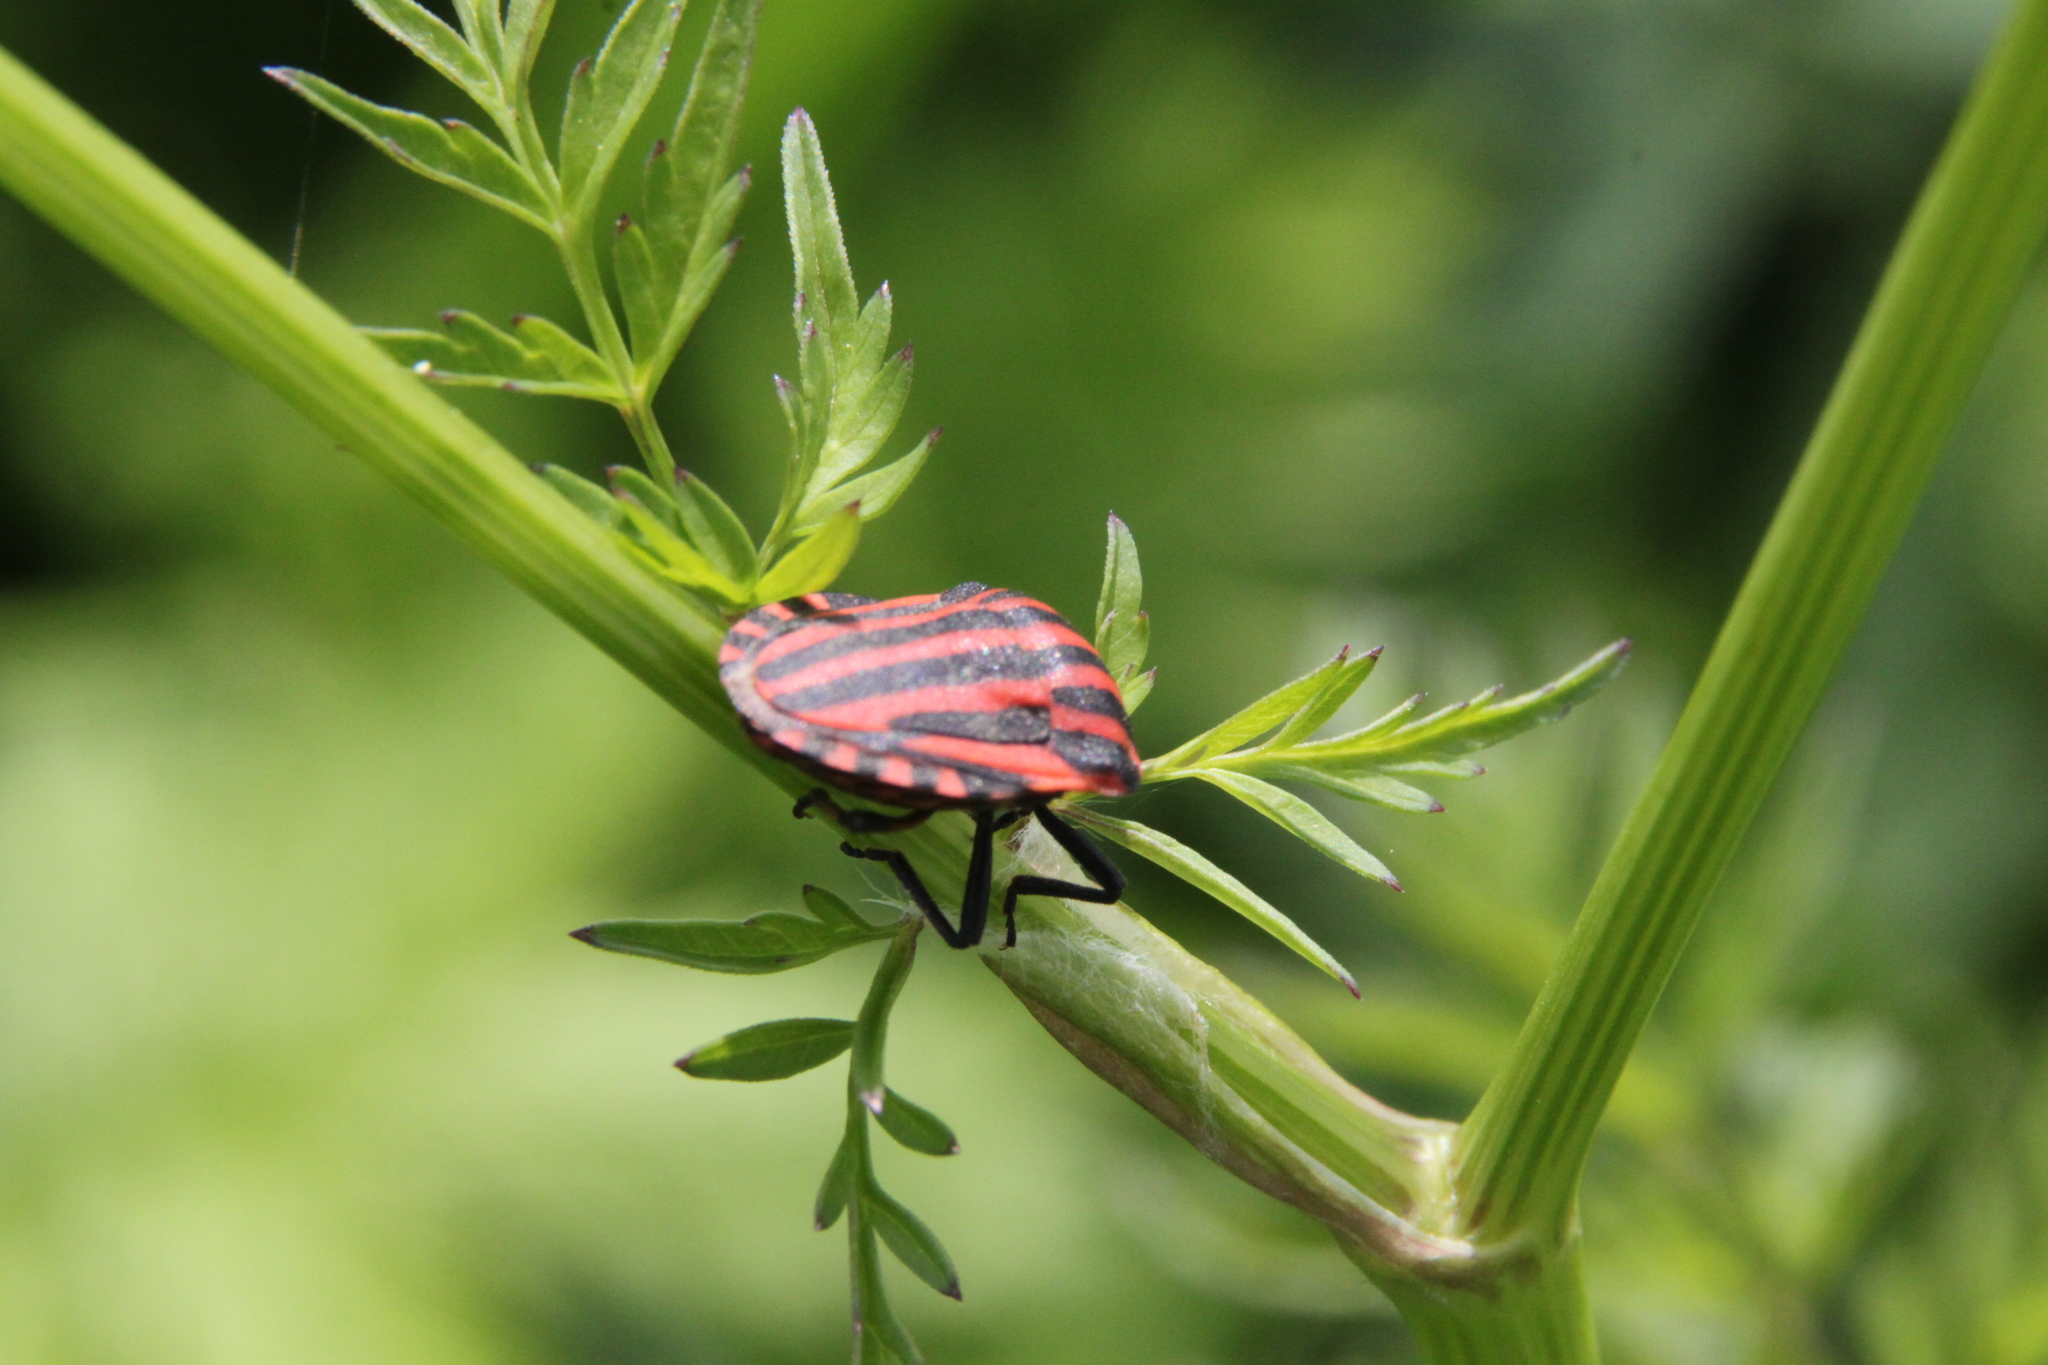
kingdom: Animalia
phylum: Arthropoda
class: Insecta
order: Hemiptera
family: Pentatomidae
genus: Graphosoma
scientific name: Graphosoma italicum
